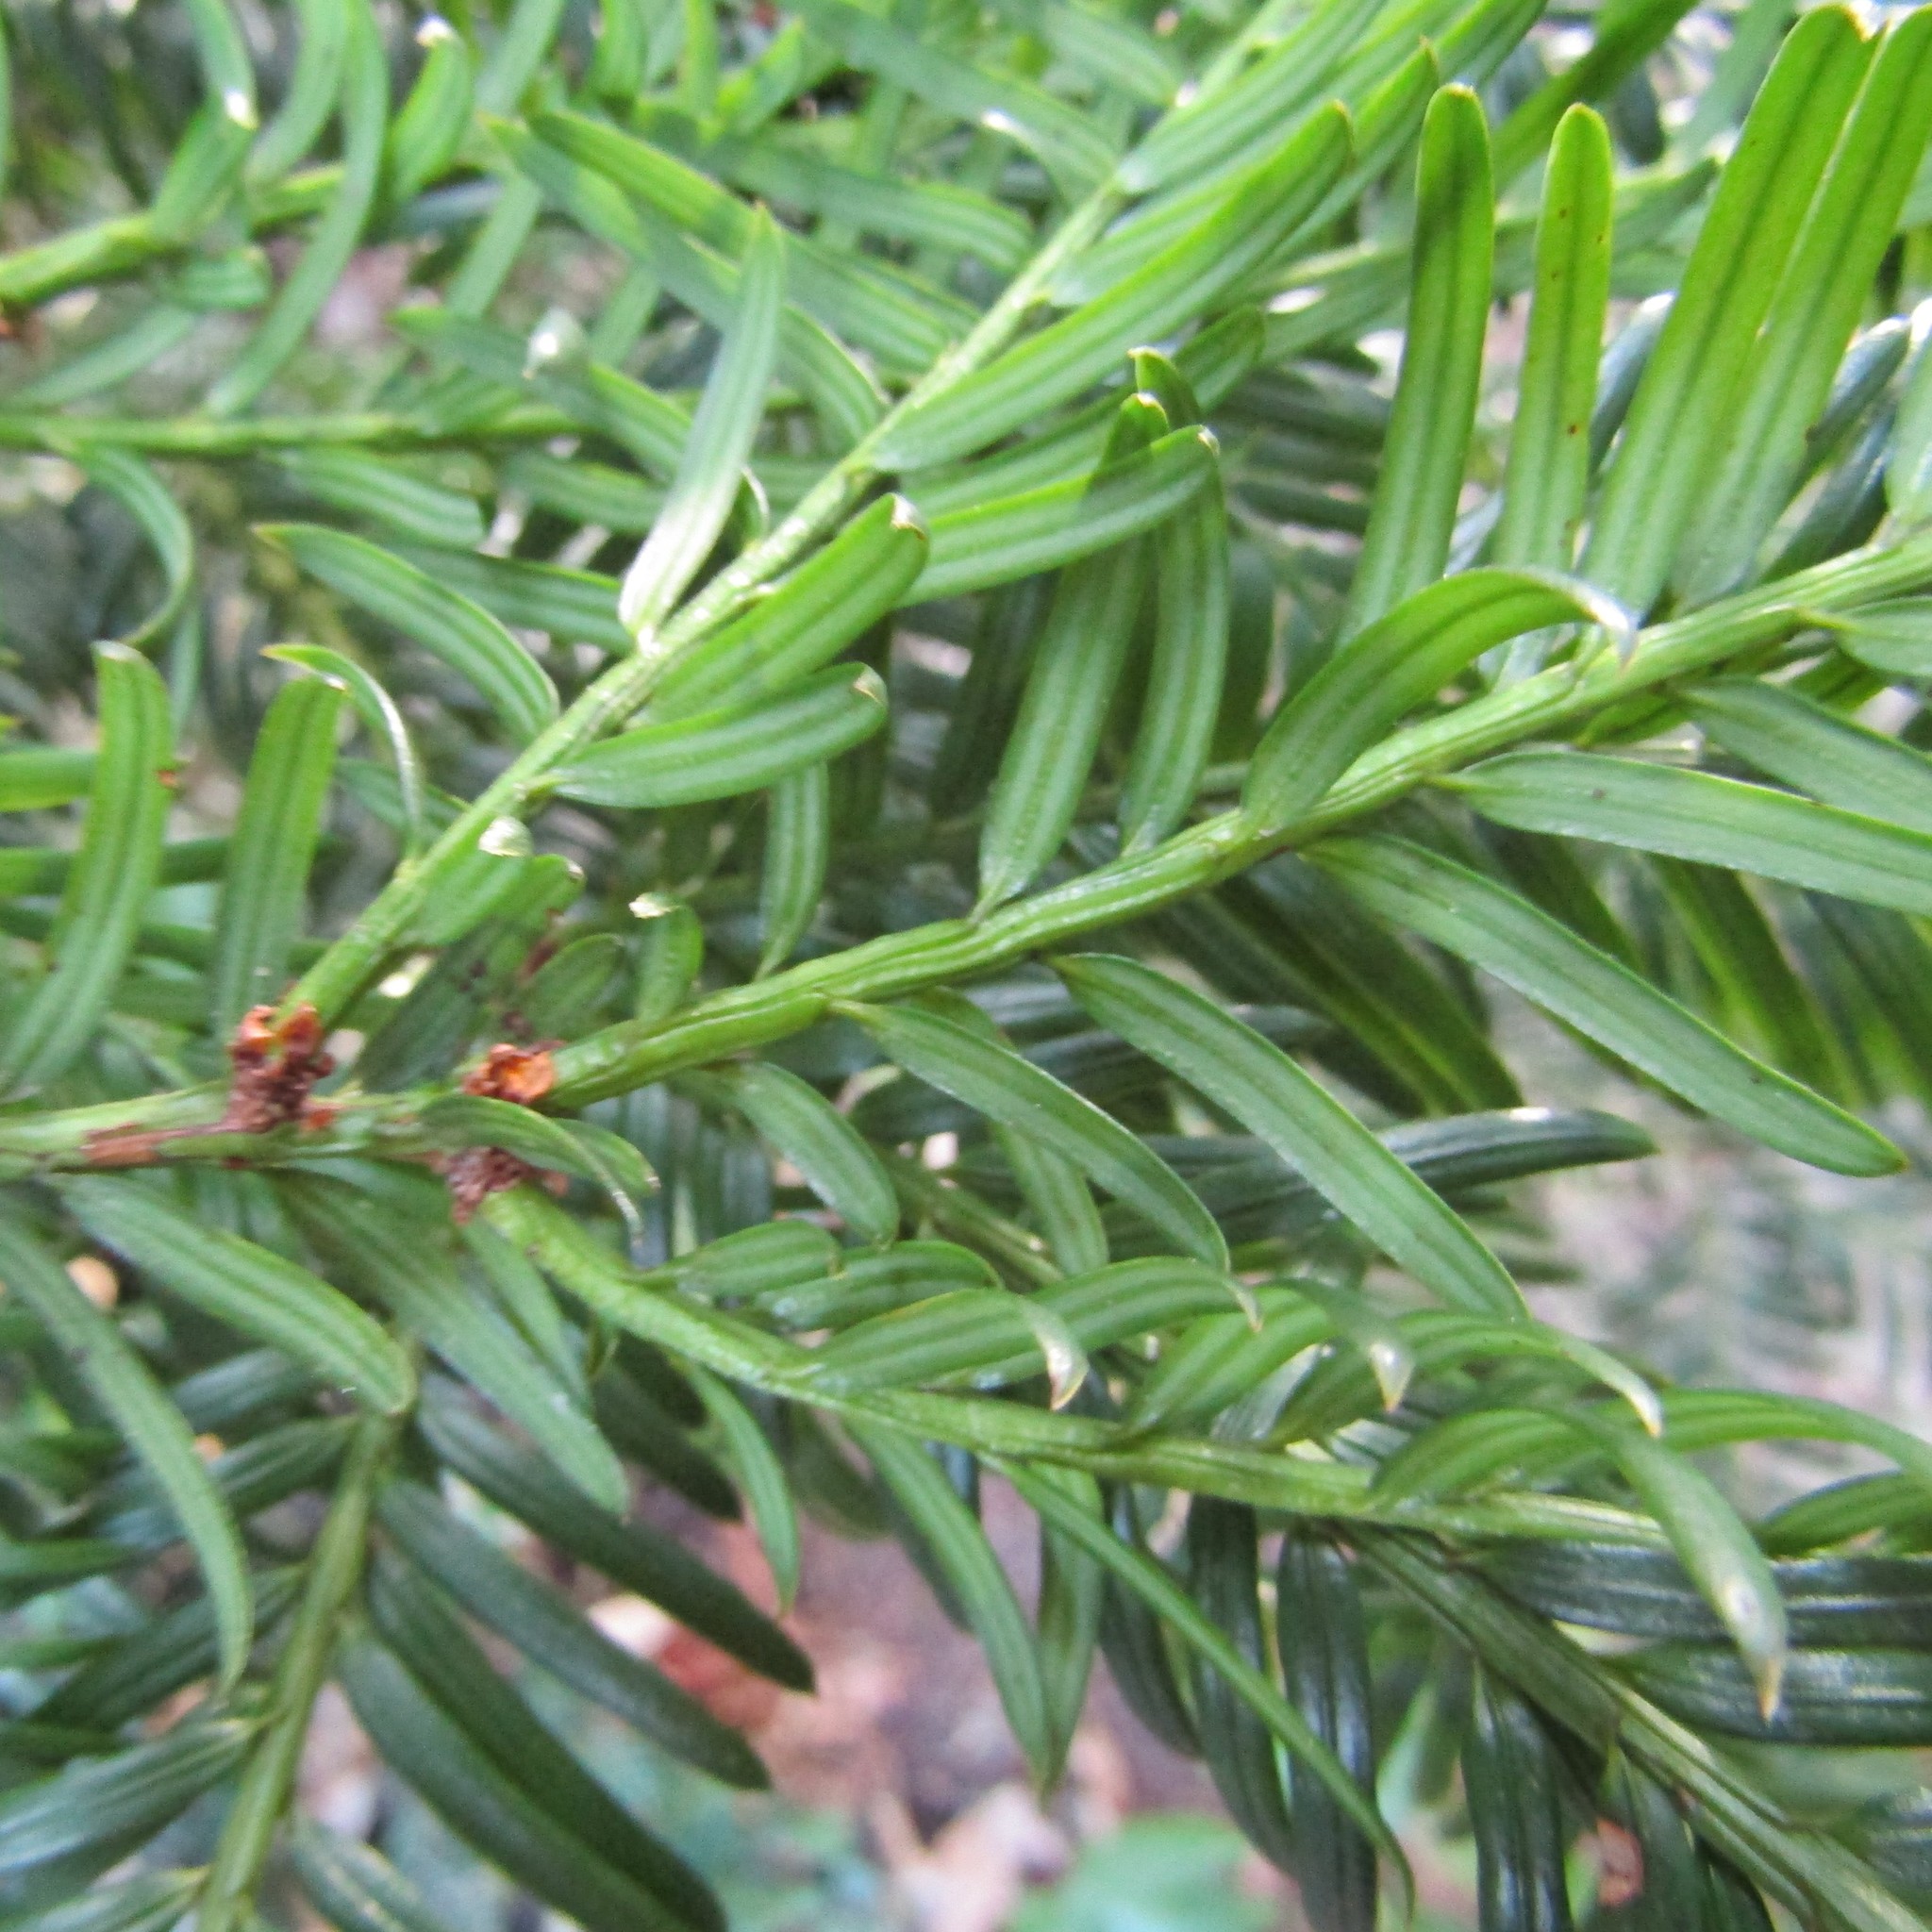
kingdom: Plantae
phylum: Tracheophyta
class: Pinopsida
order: Pinales
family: Taxaceae
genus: Taxus
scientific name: Taxus baccata
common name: Yew
